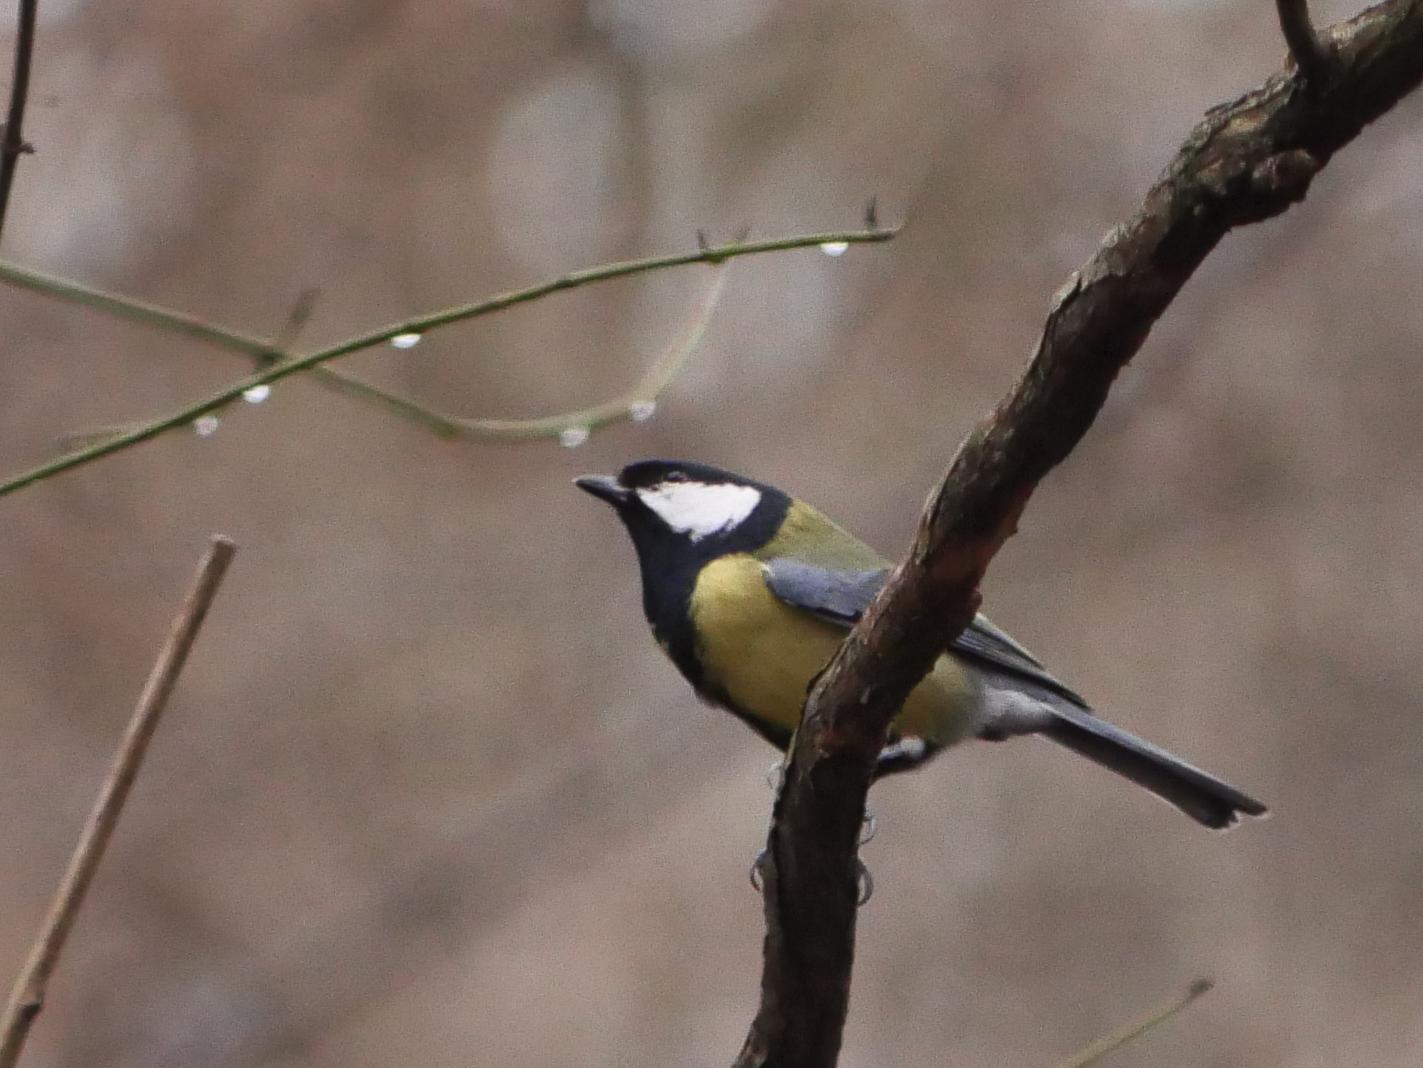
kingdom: Animalia
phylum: Chordata
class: Aves
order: Passeriformes
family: Paridae
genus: Parus
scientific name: Parus major
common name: Great tit
